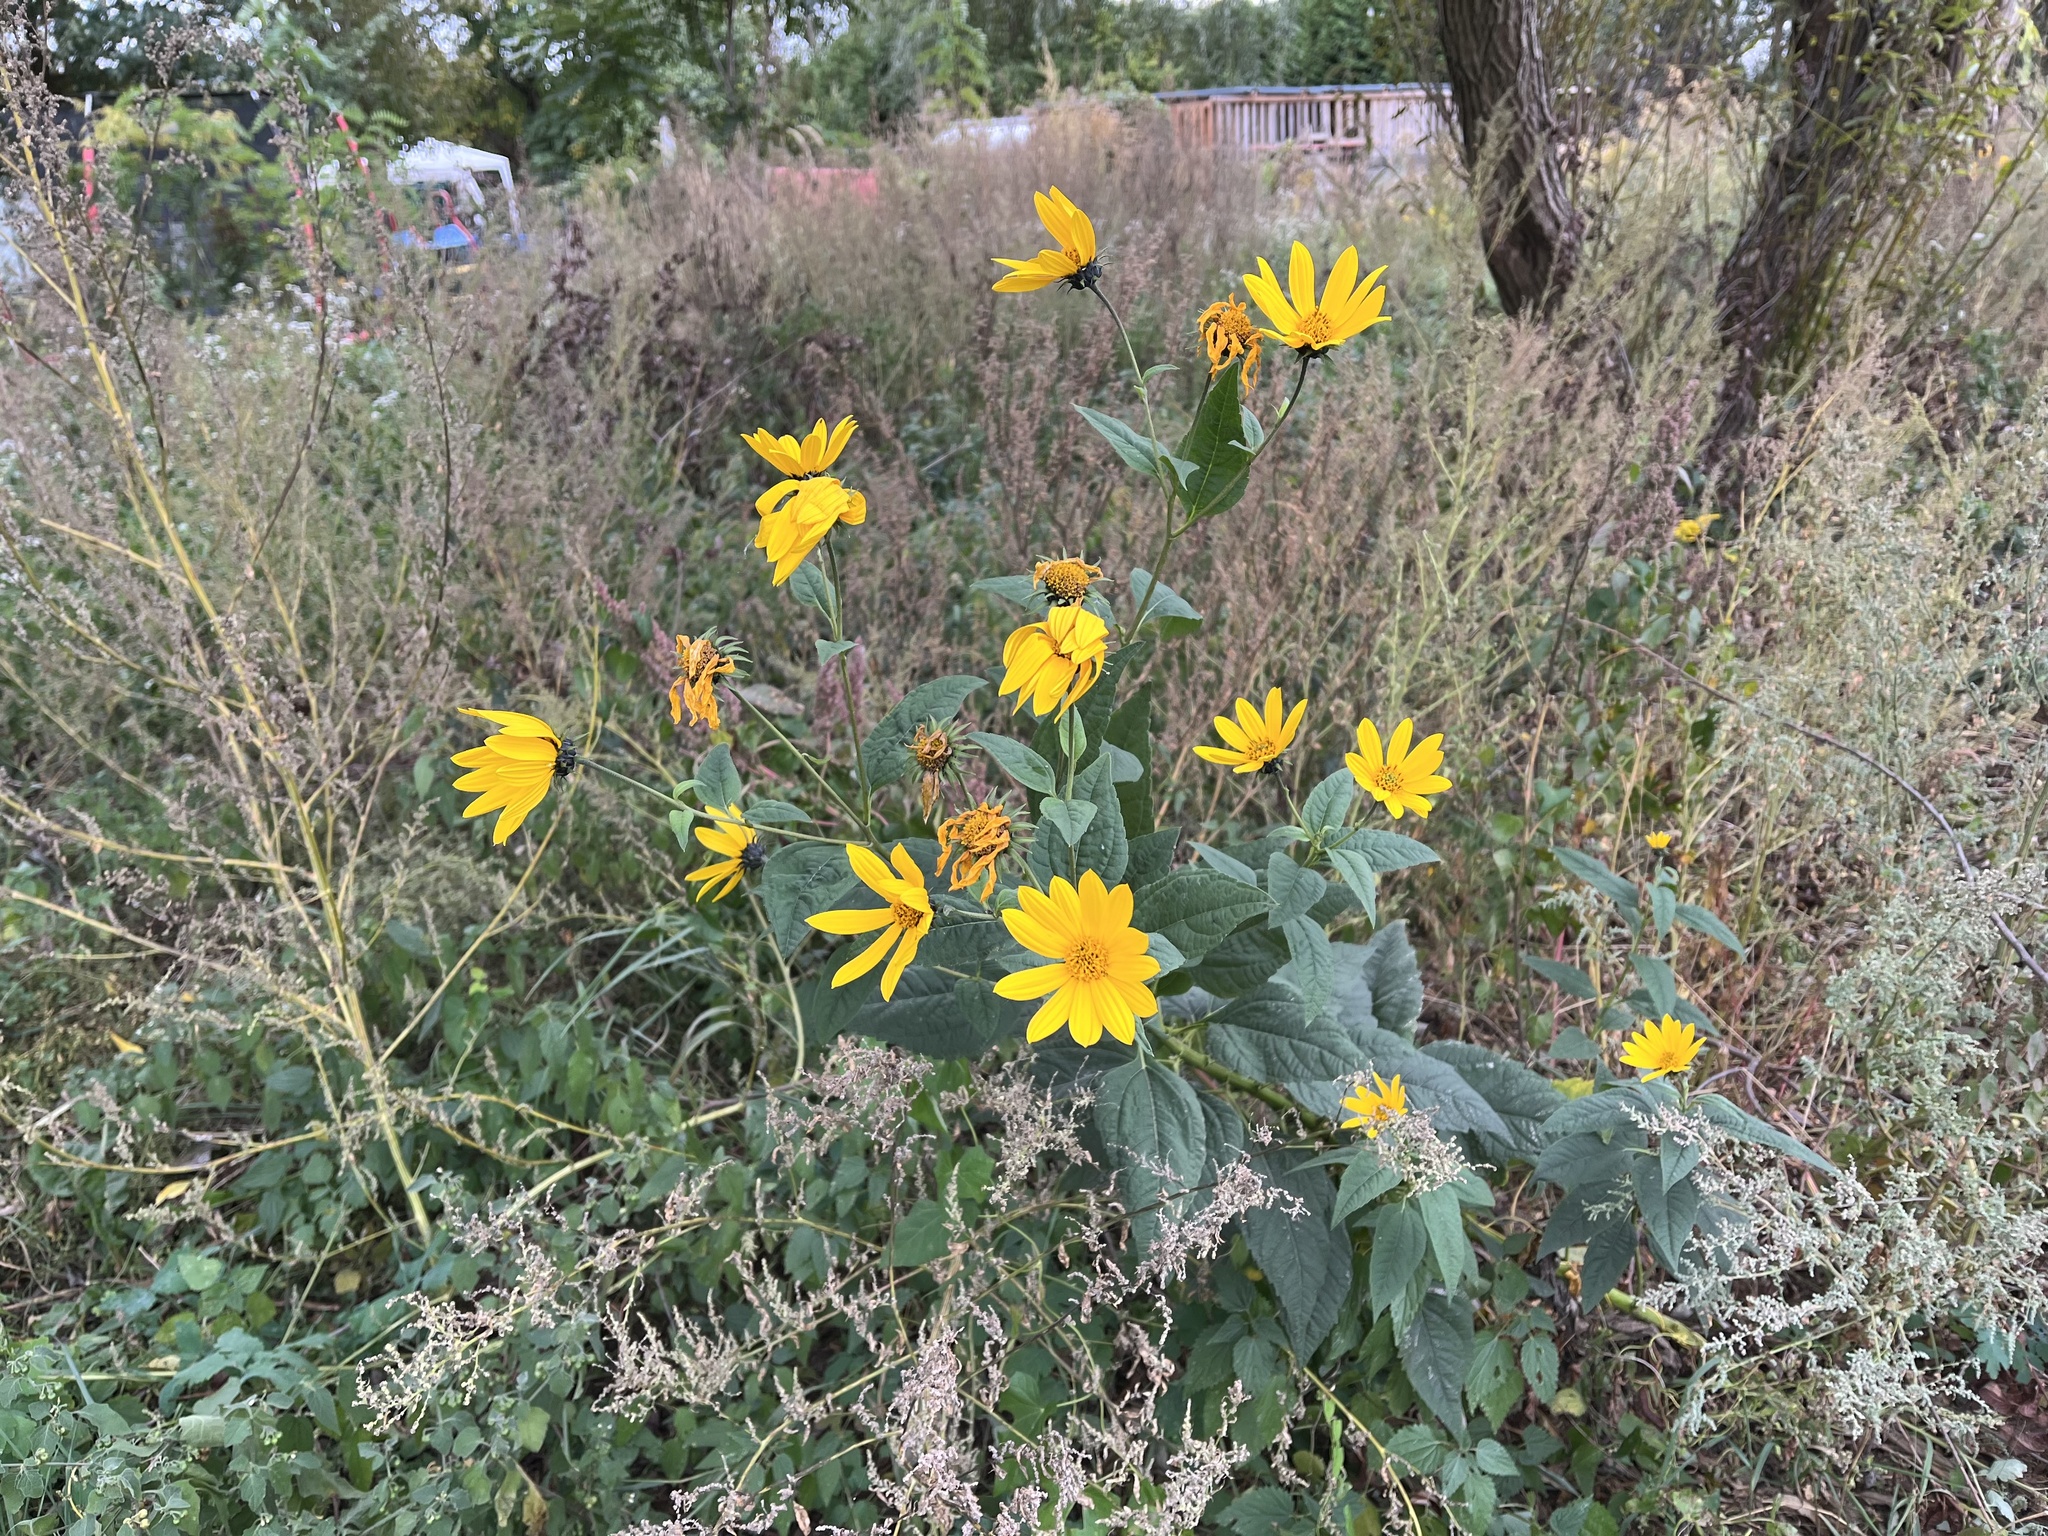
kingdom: Plantae
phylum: Tracheophyta
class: Magnoliopsida
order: Asterales
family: Asteraceae
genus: Helianthus
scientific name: Helianthus tuberosus
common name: Jerusalem artichoke
